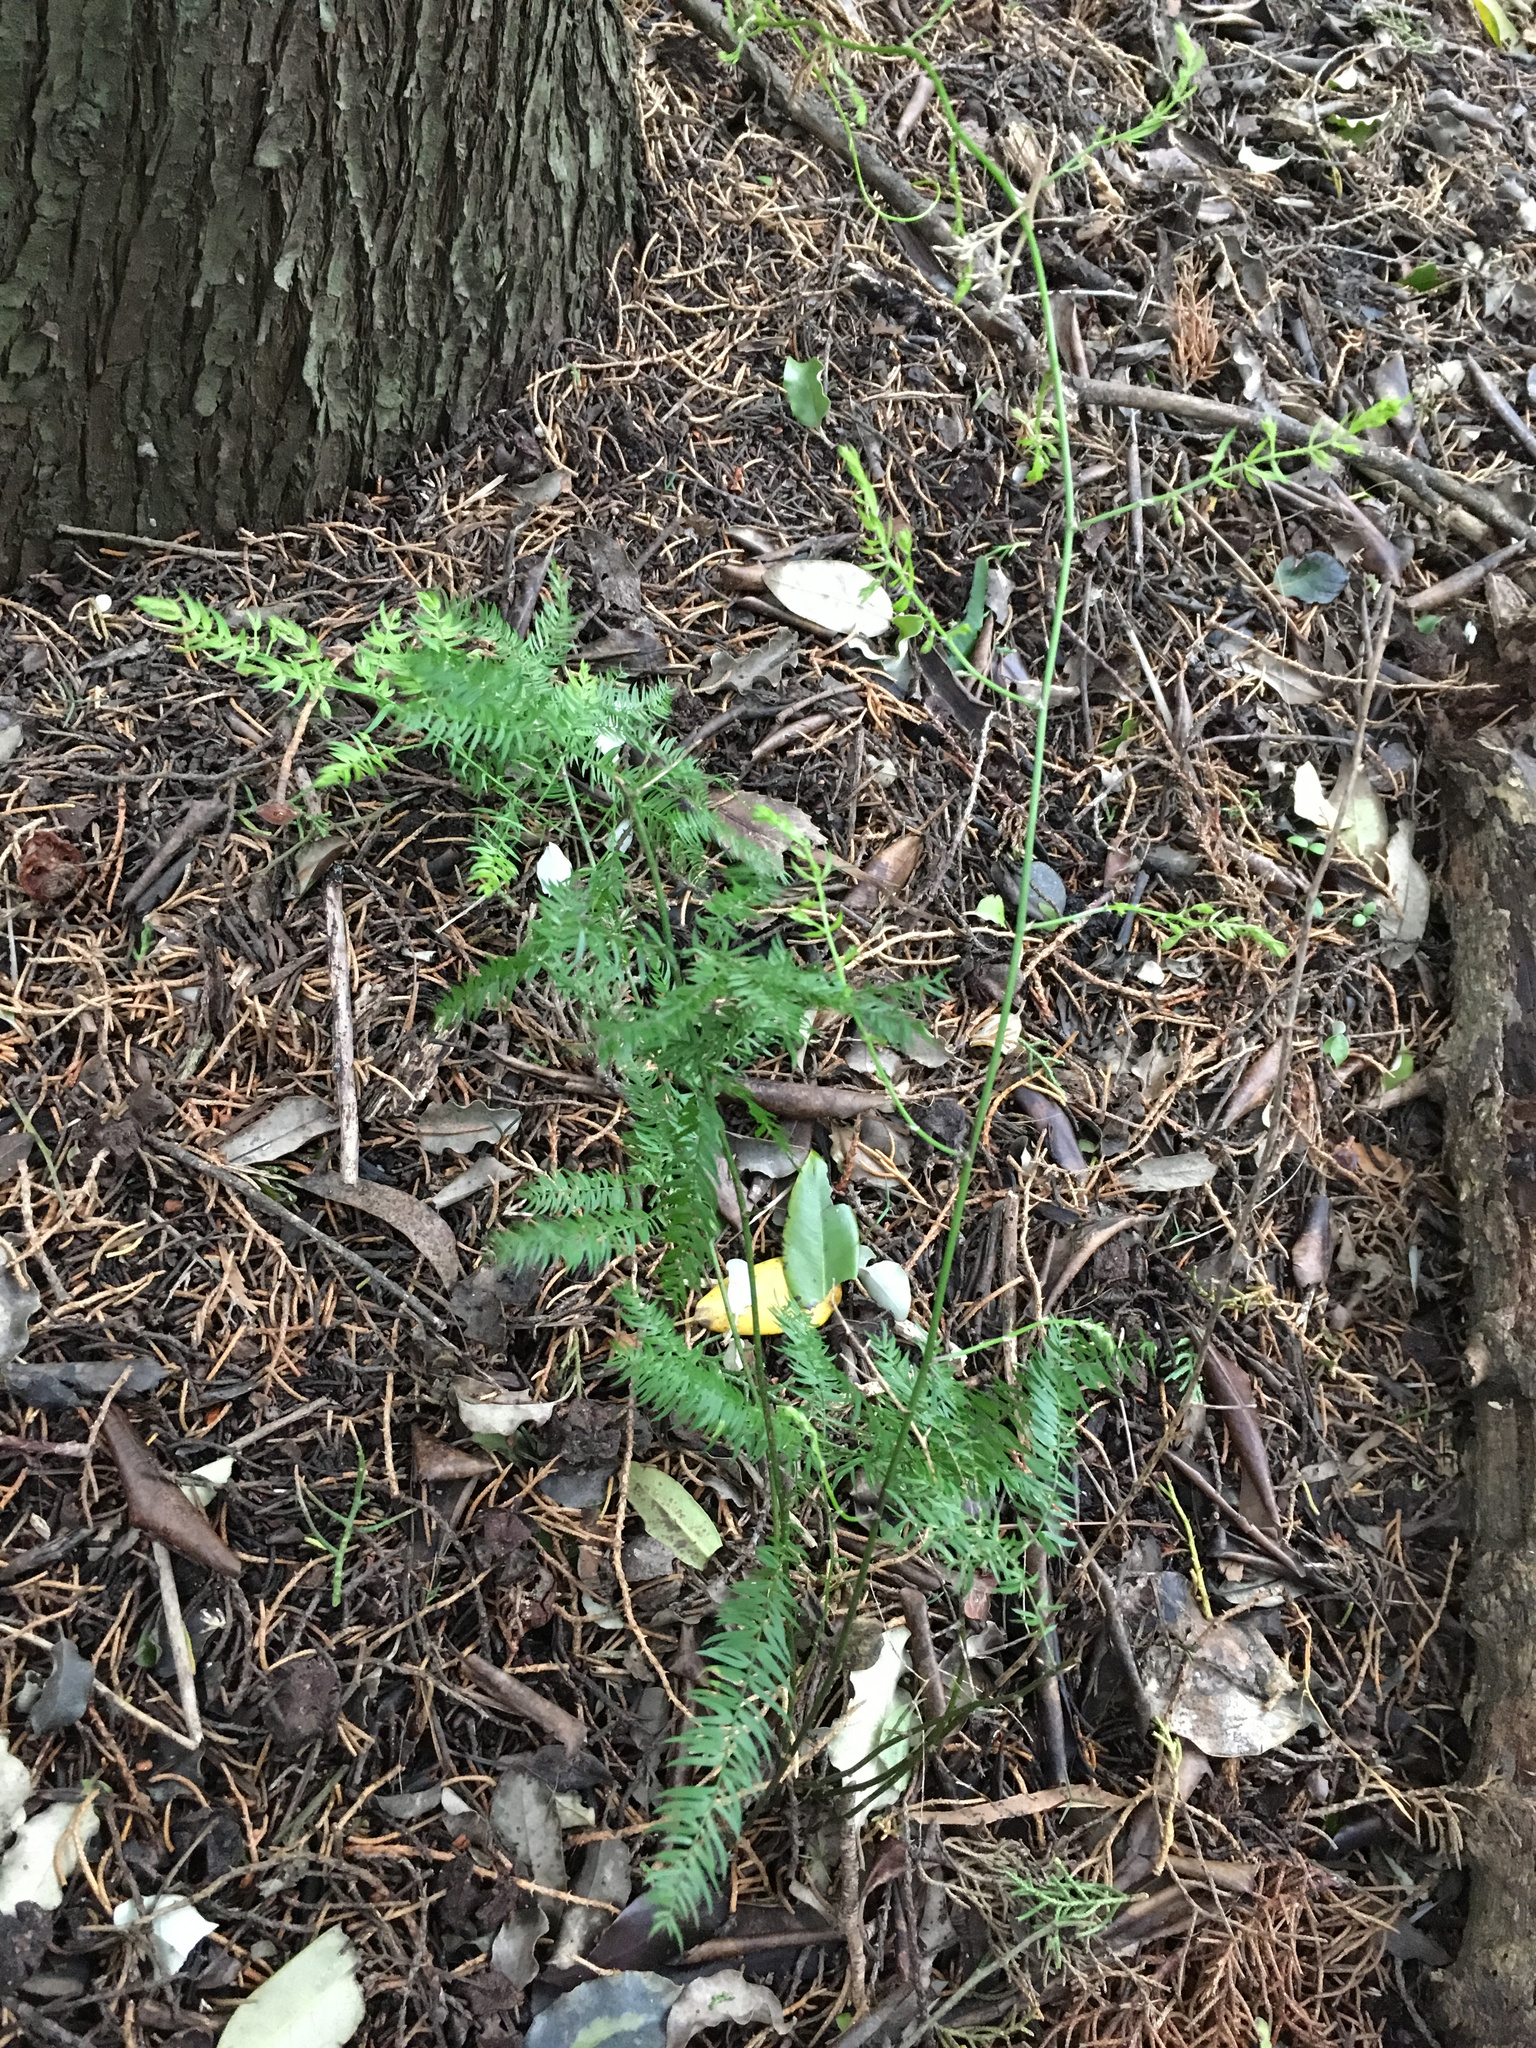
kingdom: Plantae
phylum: Tracheophyta
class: Liliopsida
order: Asparagales
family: Asparagaceae
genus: Asparagus
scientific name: Asparagus scandens
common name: Asparagus-fern
